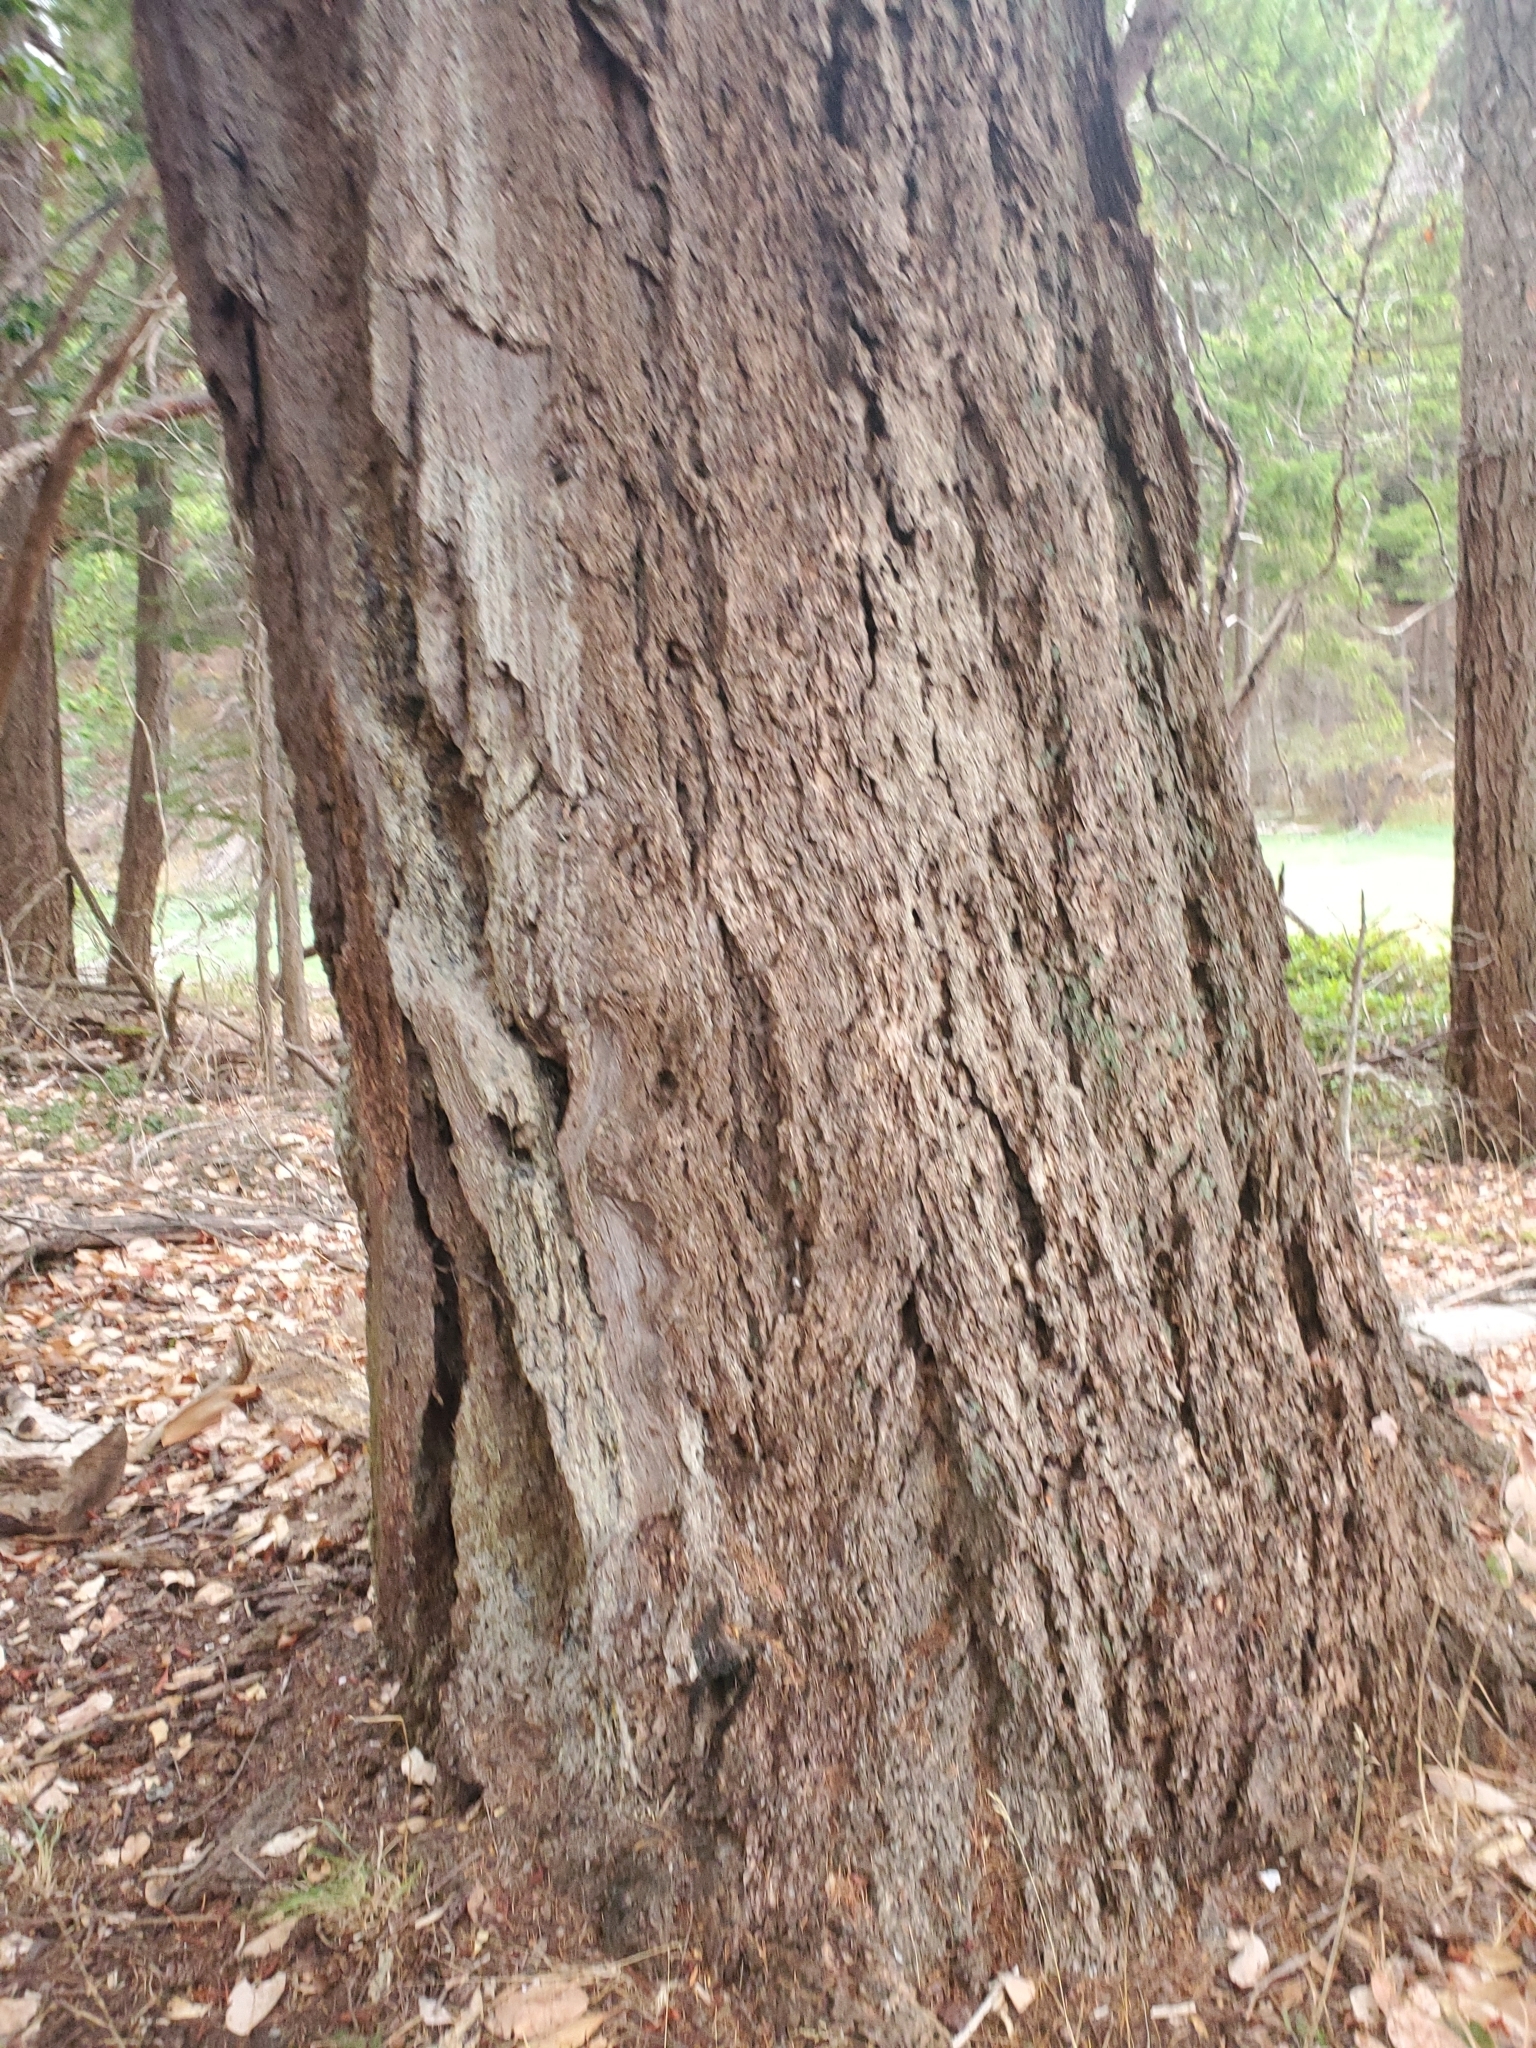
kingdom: Plantae
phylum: Tracheophyta
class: Pinopsida
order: Pinales
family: Pinaceae
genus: Pseudotsuga
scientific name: Pseudotsuga menziesii
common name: Douglas fir
